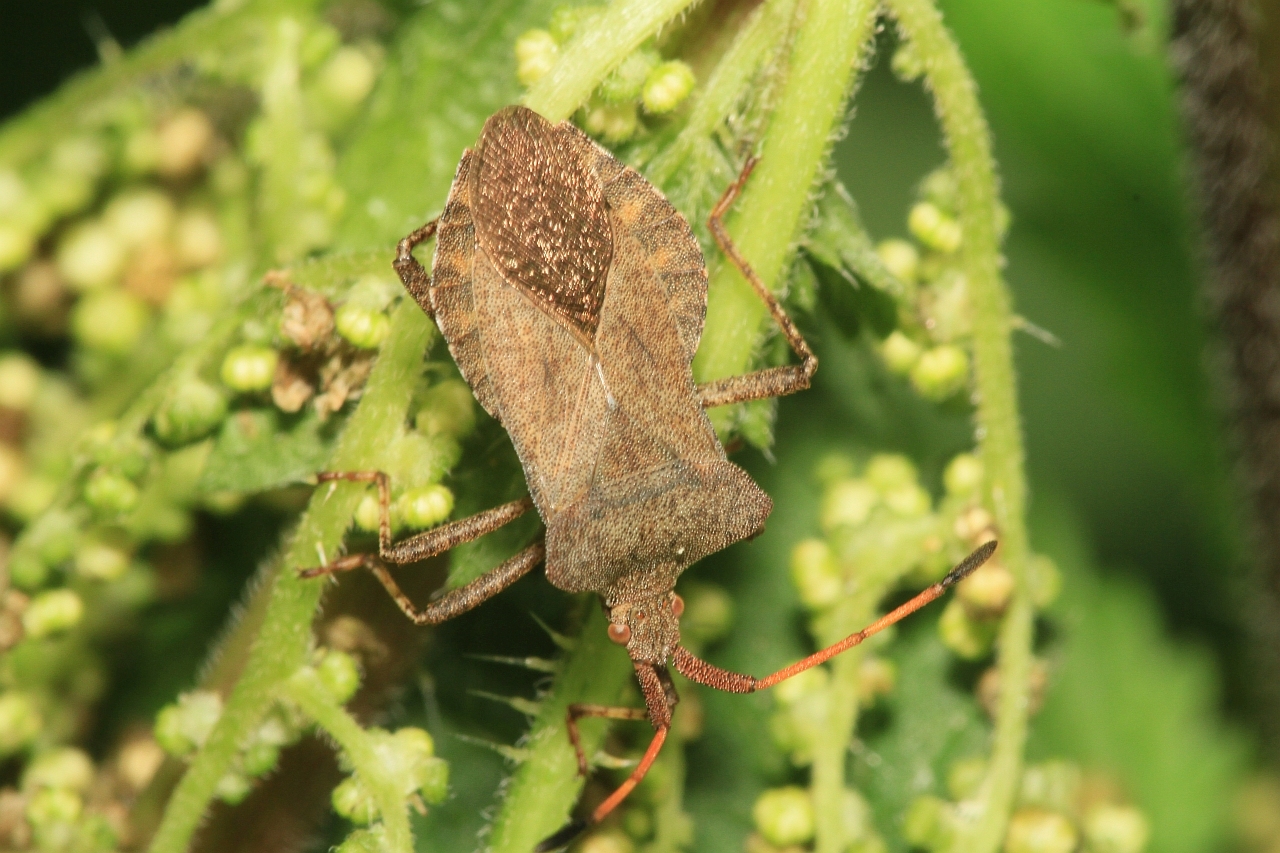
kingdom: Animalia
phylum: Arthropoda
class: Insecta
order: Hemiptera
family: Coreidae
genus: Coreus
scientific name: Coreus marginatus
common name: Dock bug
